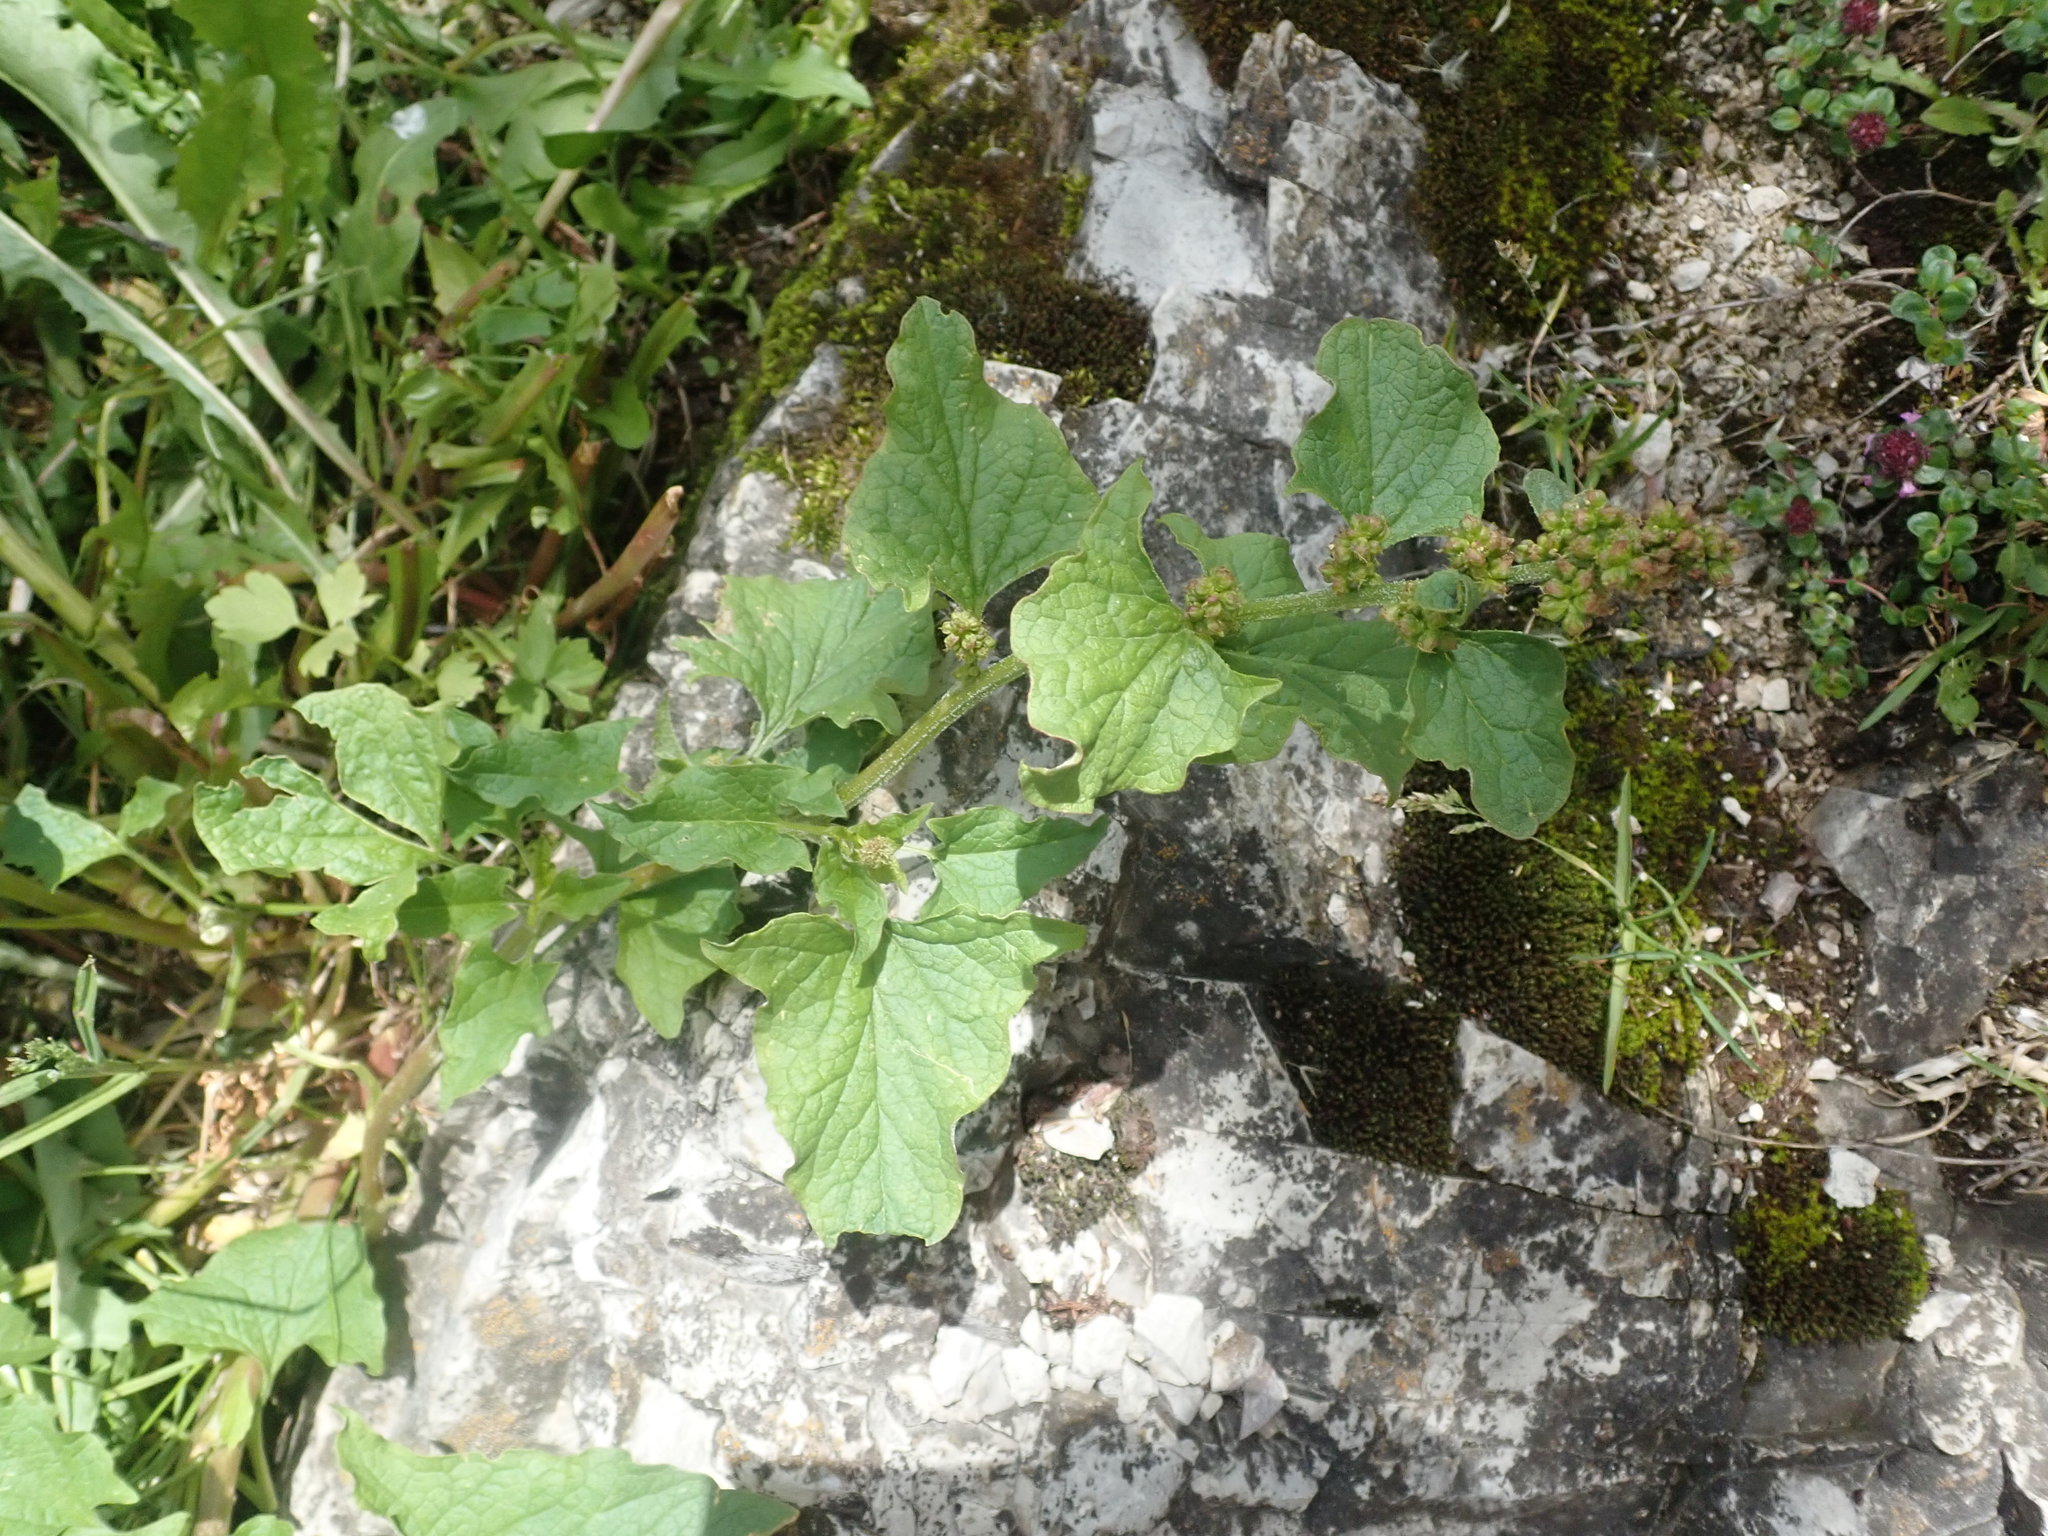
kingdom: Plantae
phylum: Tracheophyta
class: Magnoliopsida
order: Caryophyllales
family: Amaranthaceae
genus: Blitum
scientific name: Blitum bonus-henricus
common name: Good king henry
